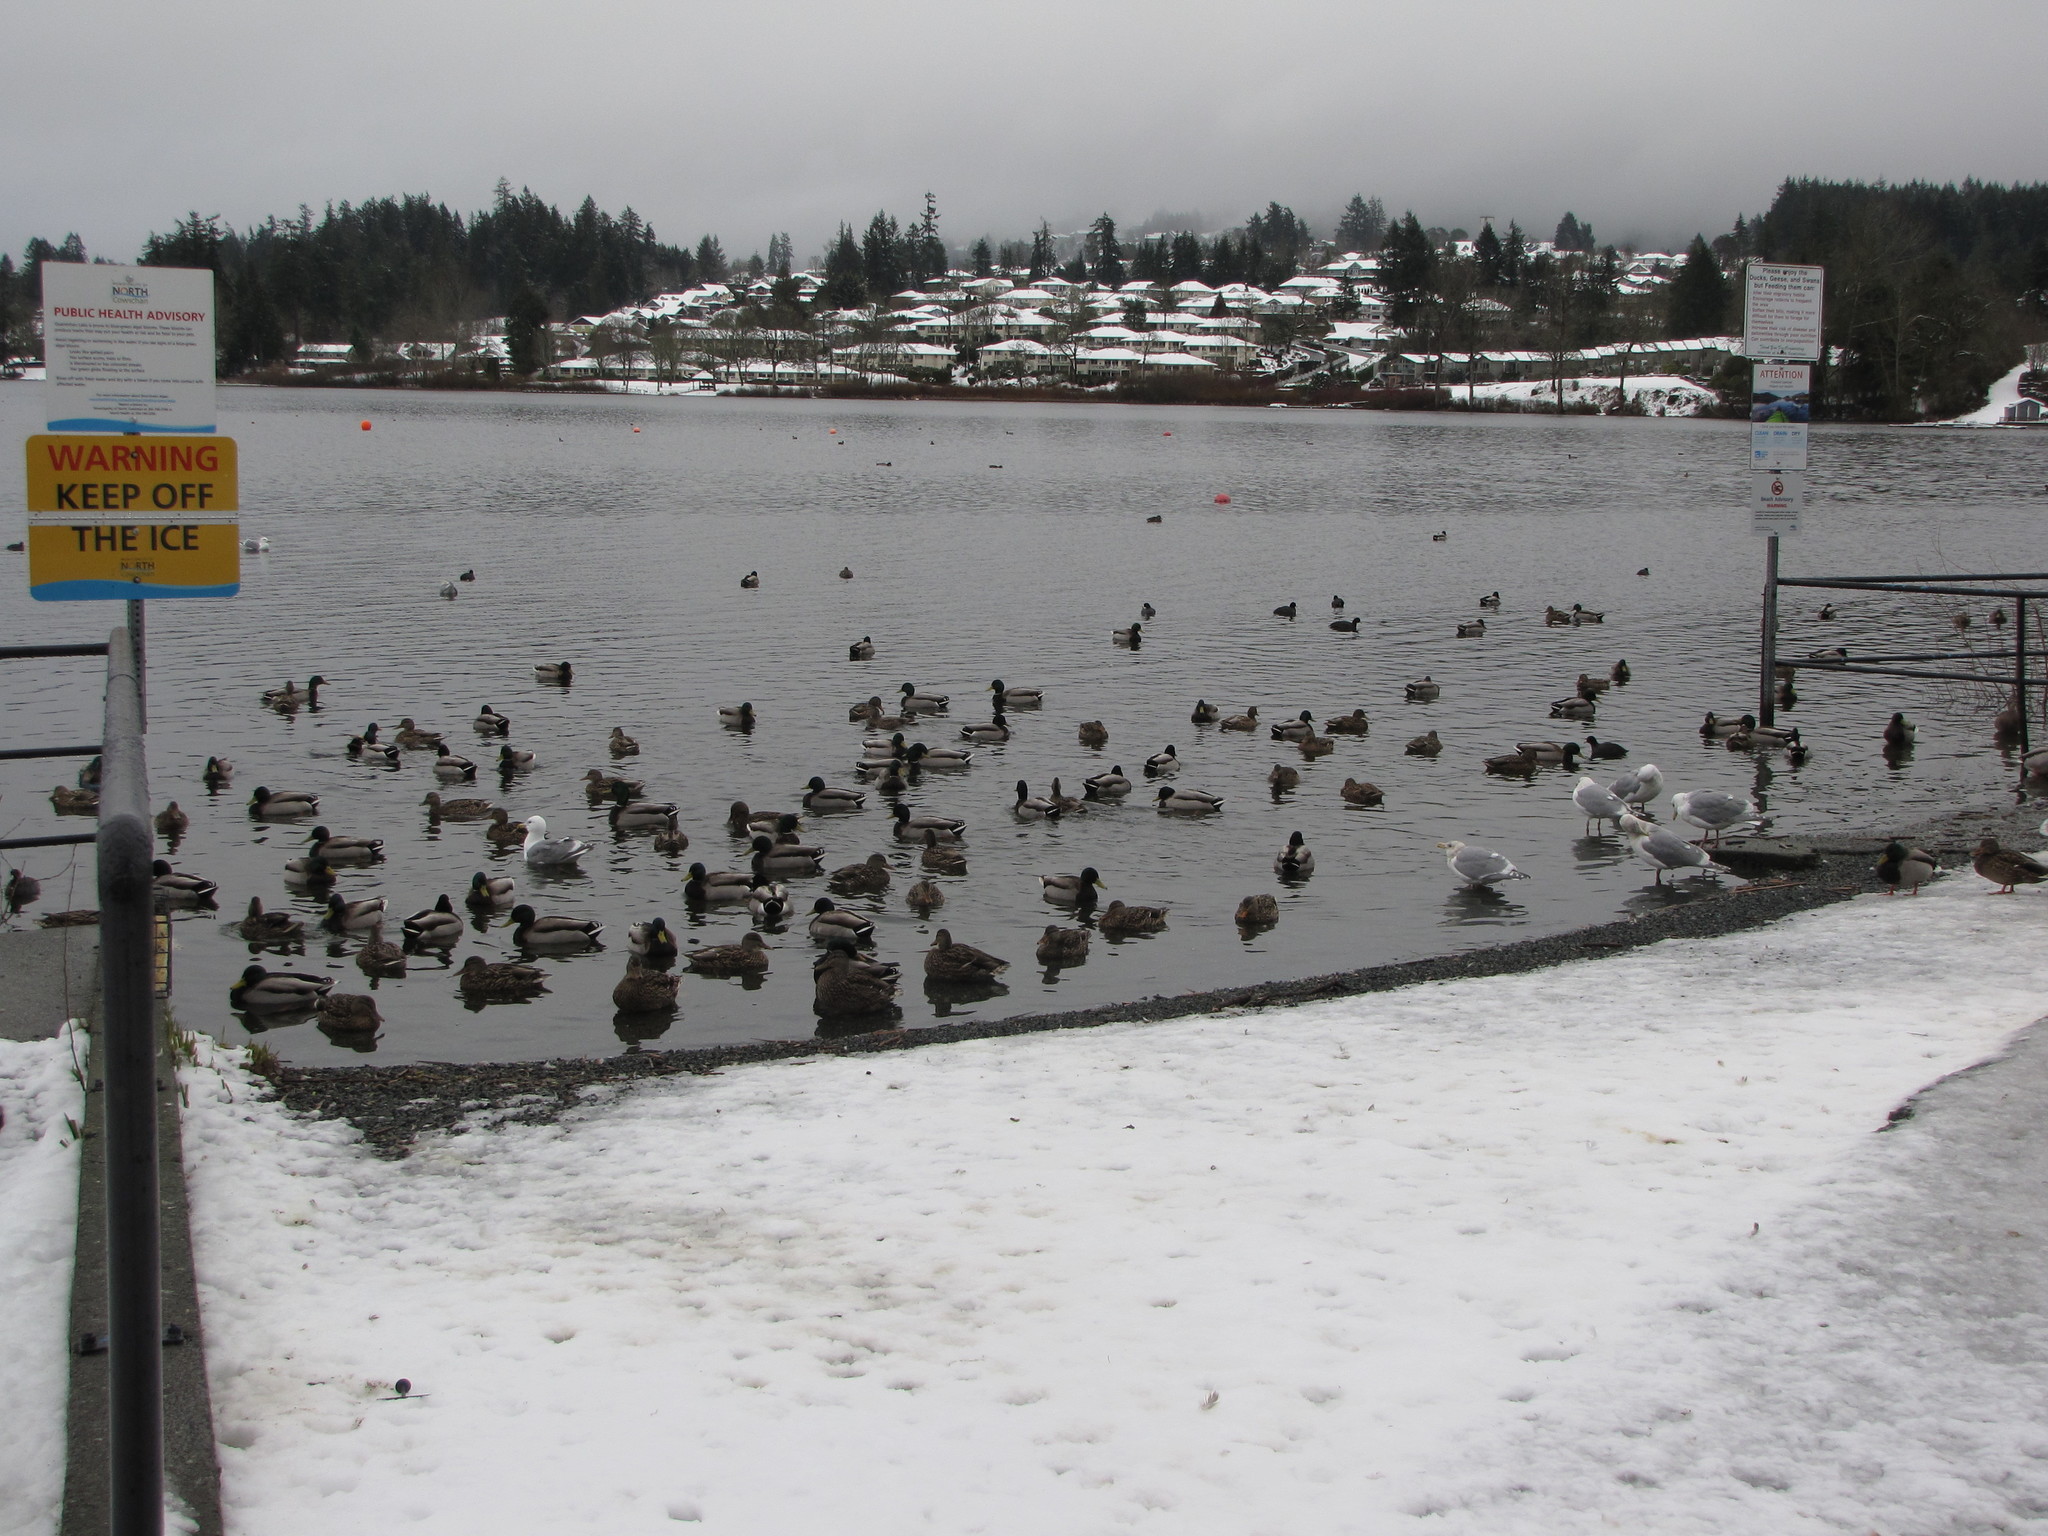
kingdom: Animalia
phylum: Chordata
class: Aves
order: Anseriformes
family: Anatidae
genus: Anas
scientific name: Anas platyrhynchos
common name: Mallard
